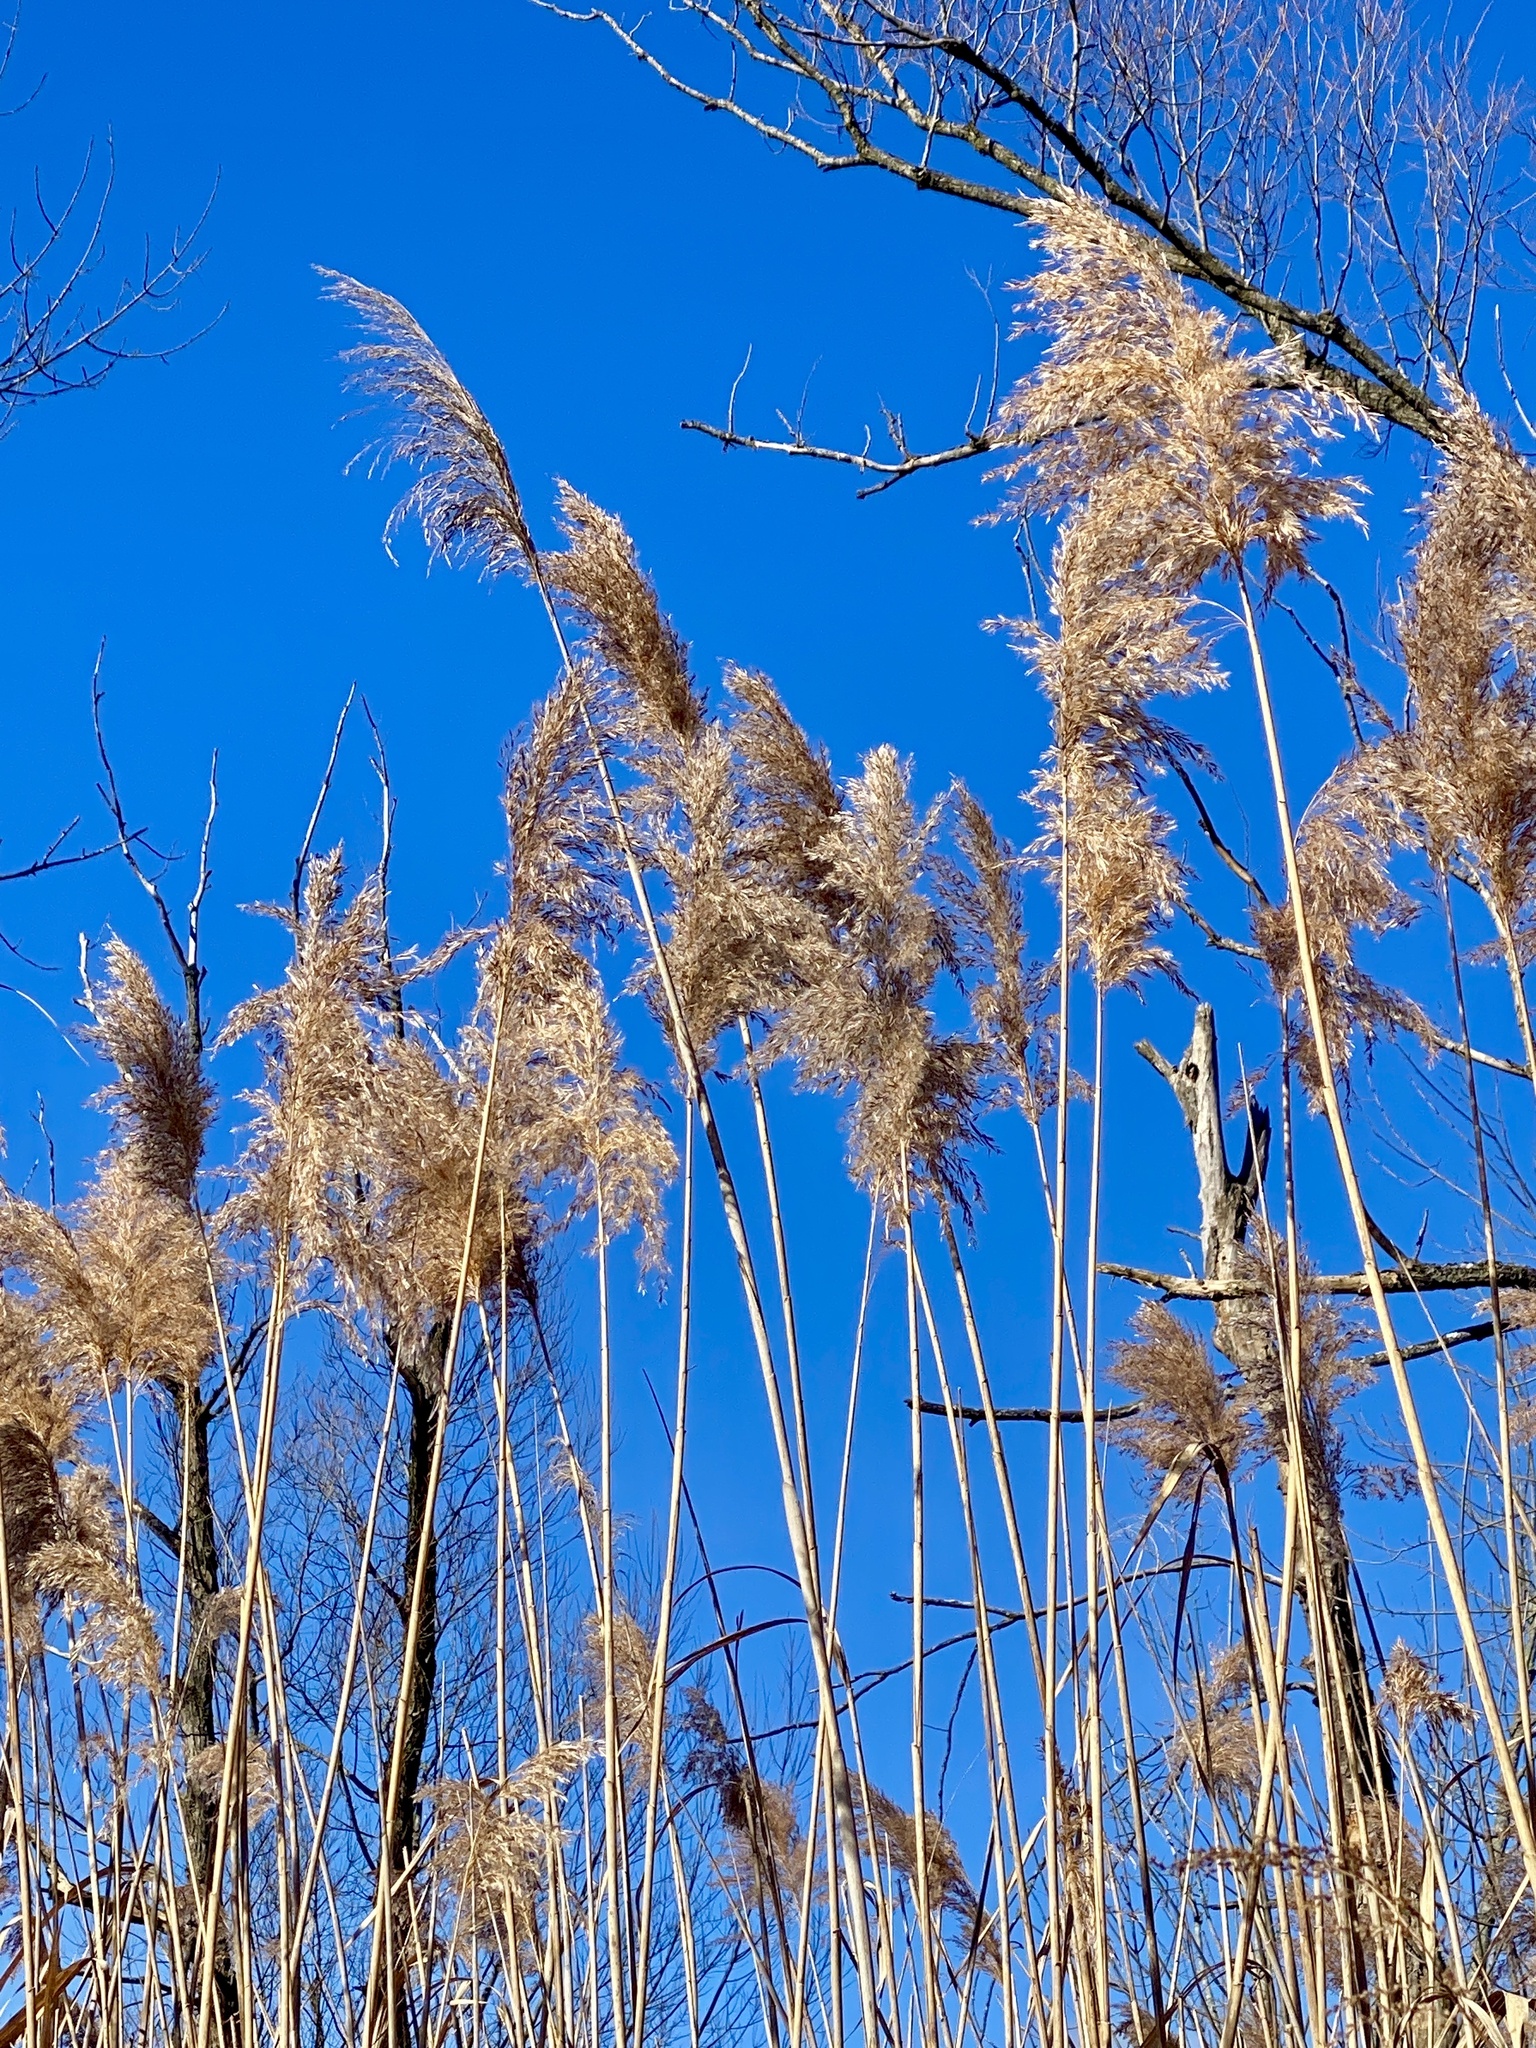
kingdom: Plantae
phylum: Tracheophyta
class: Liliopsida
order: Poales
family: Poaceae
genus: Phragmites
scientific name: Phragmites australis
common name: Common reed
